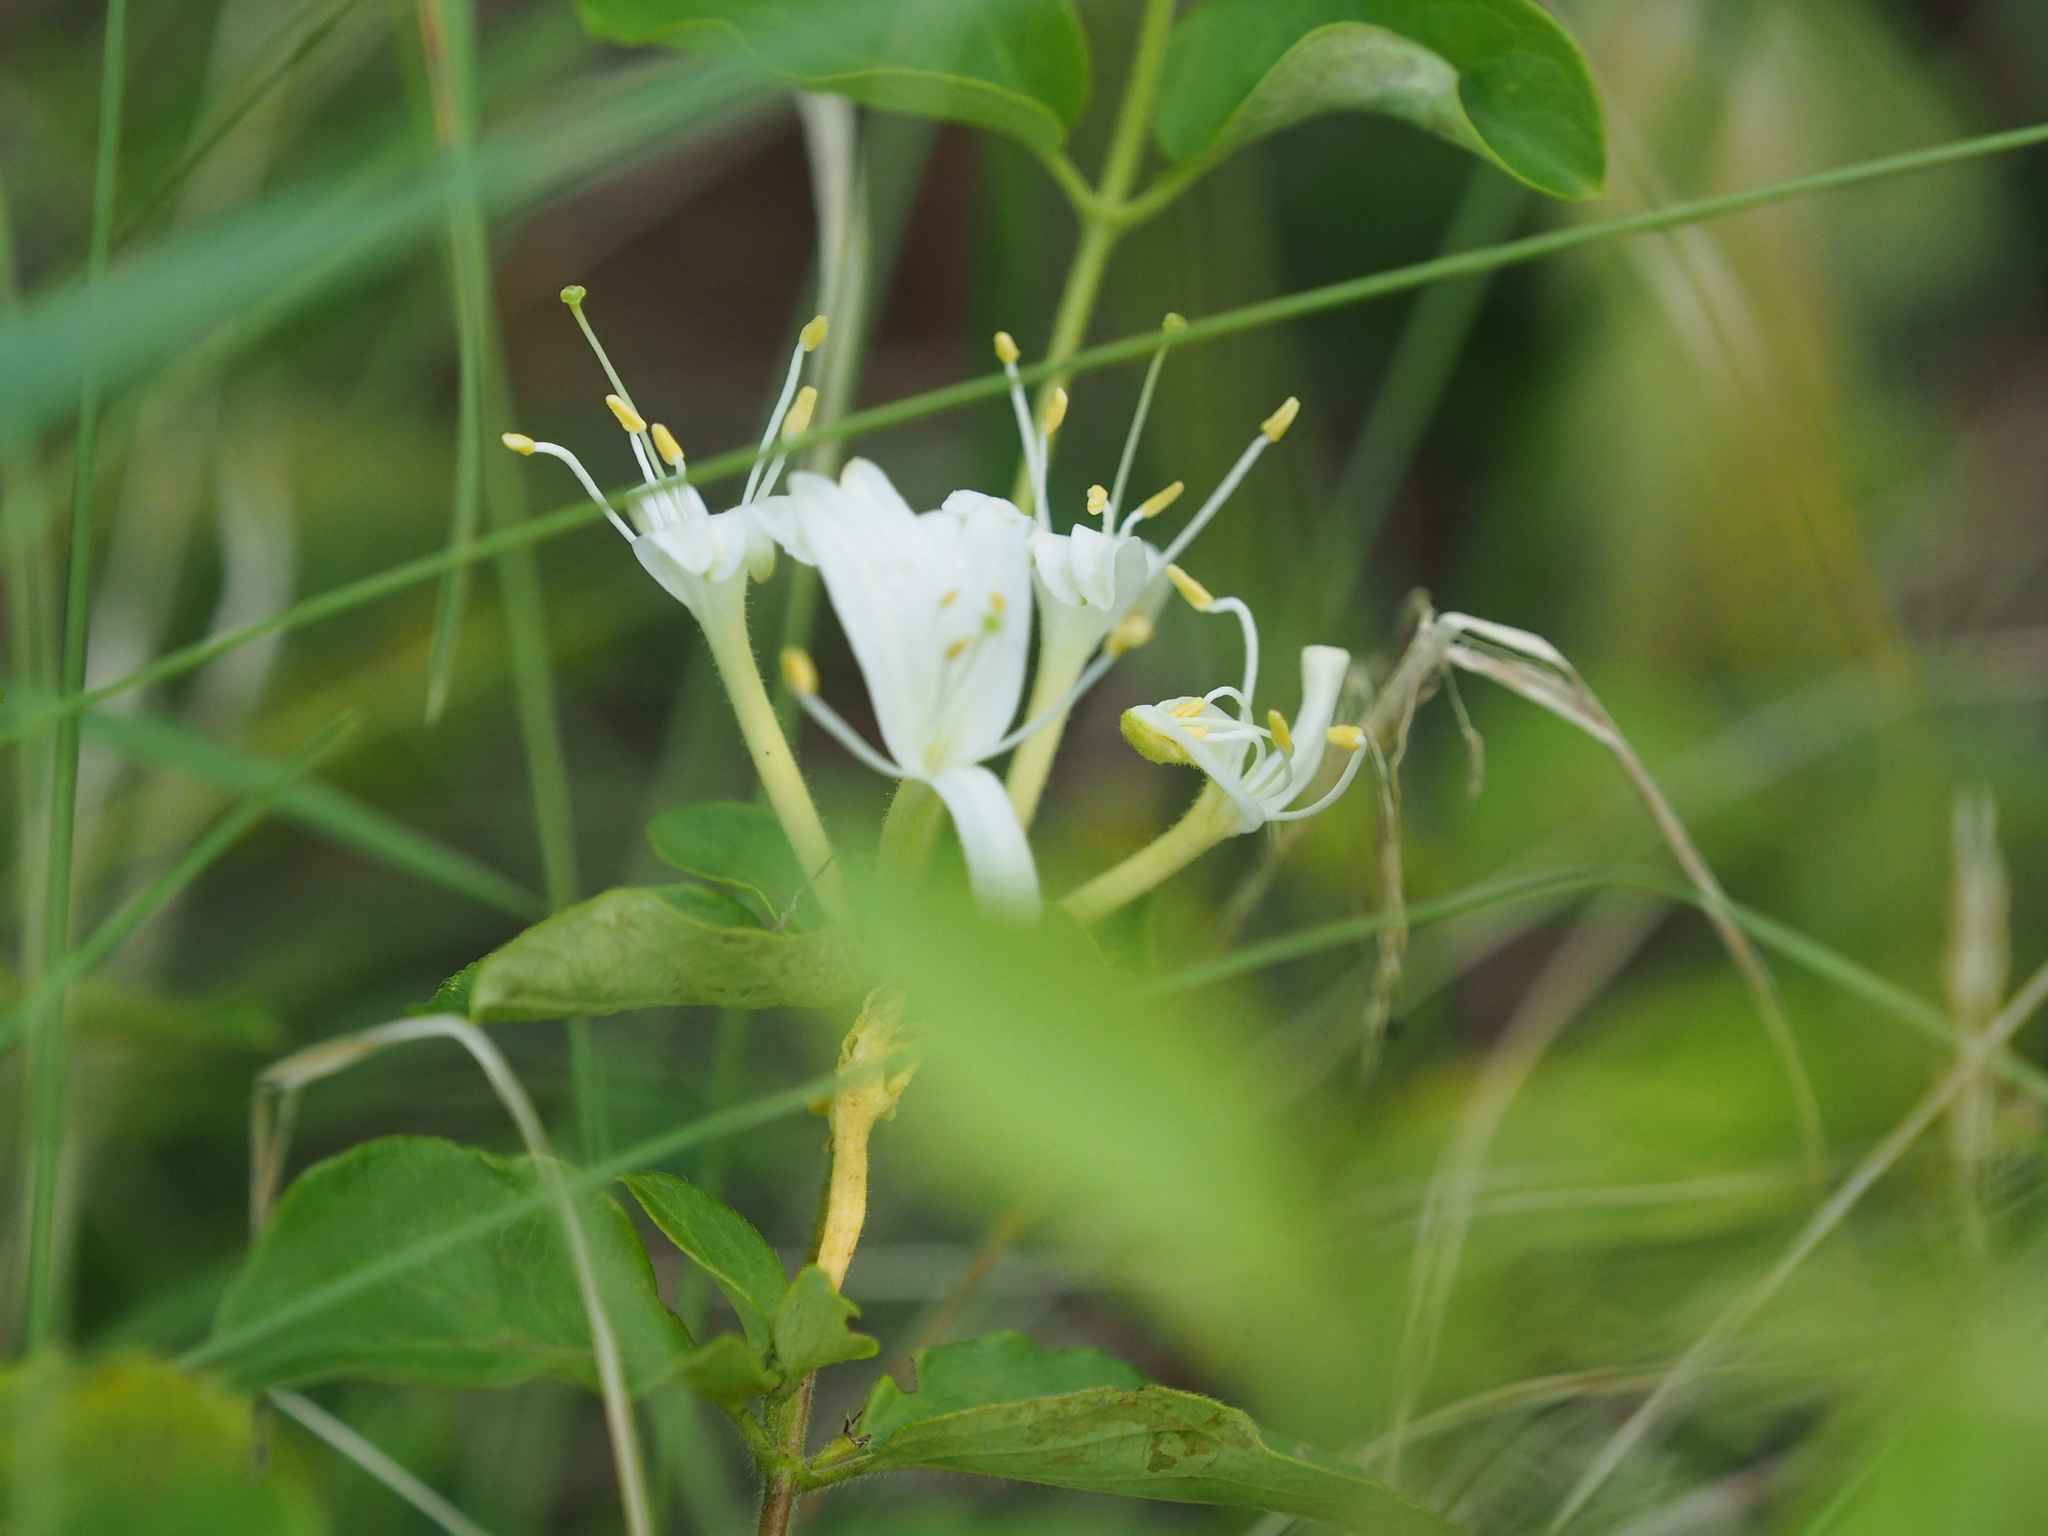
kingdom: Plantae
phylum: Tracheophyta
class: Magnoliopsida
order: Dipsacales
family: Caprifoliaceae
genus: Lonicera
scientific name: Lonicera japonica
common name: Japanese honeysuckle
